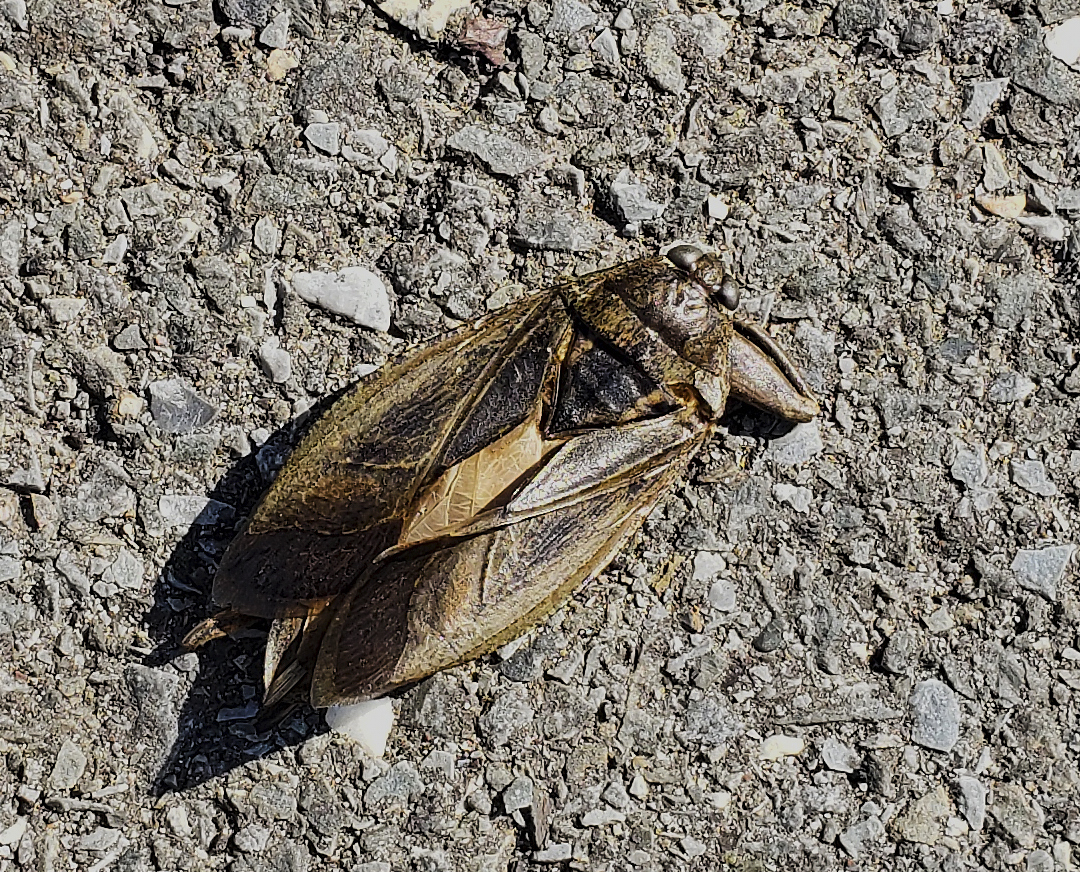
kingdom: Animalia
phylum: Arthropoda
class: Insecta
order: Hemiptera
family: Belostomatidae
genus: Lethocerus
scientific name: Lethocerus americanus
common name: Giant water bug
